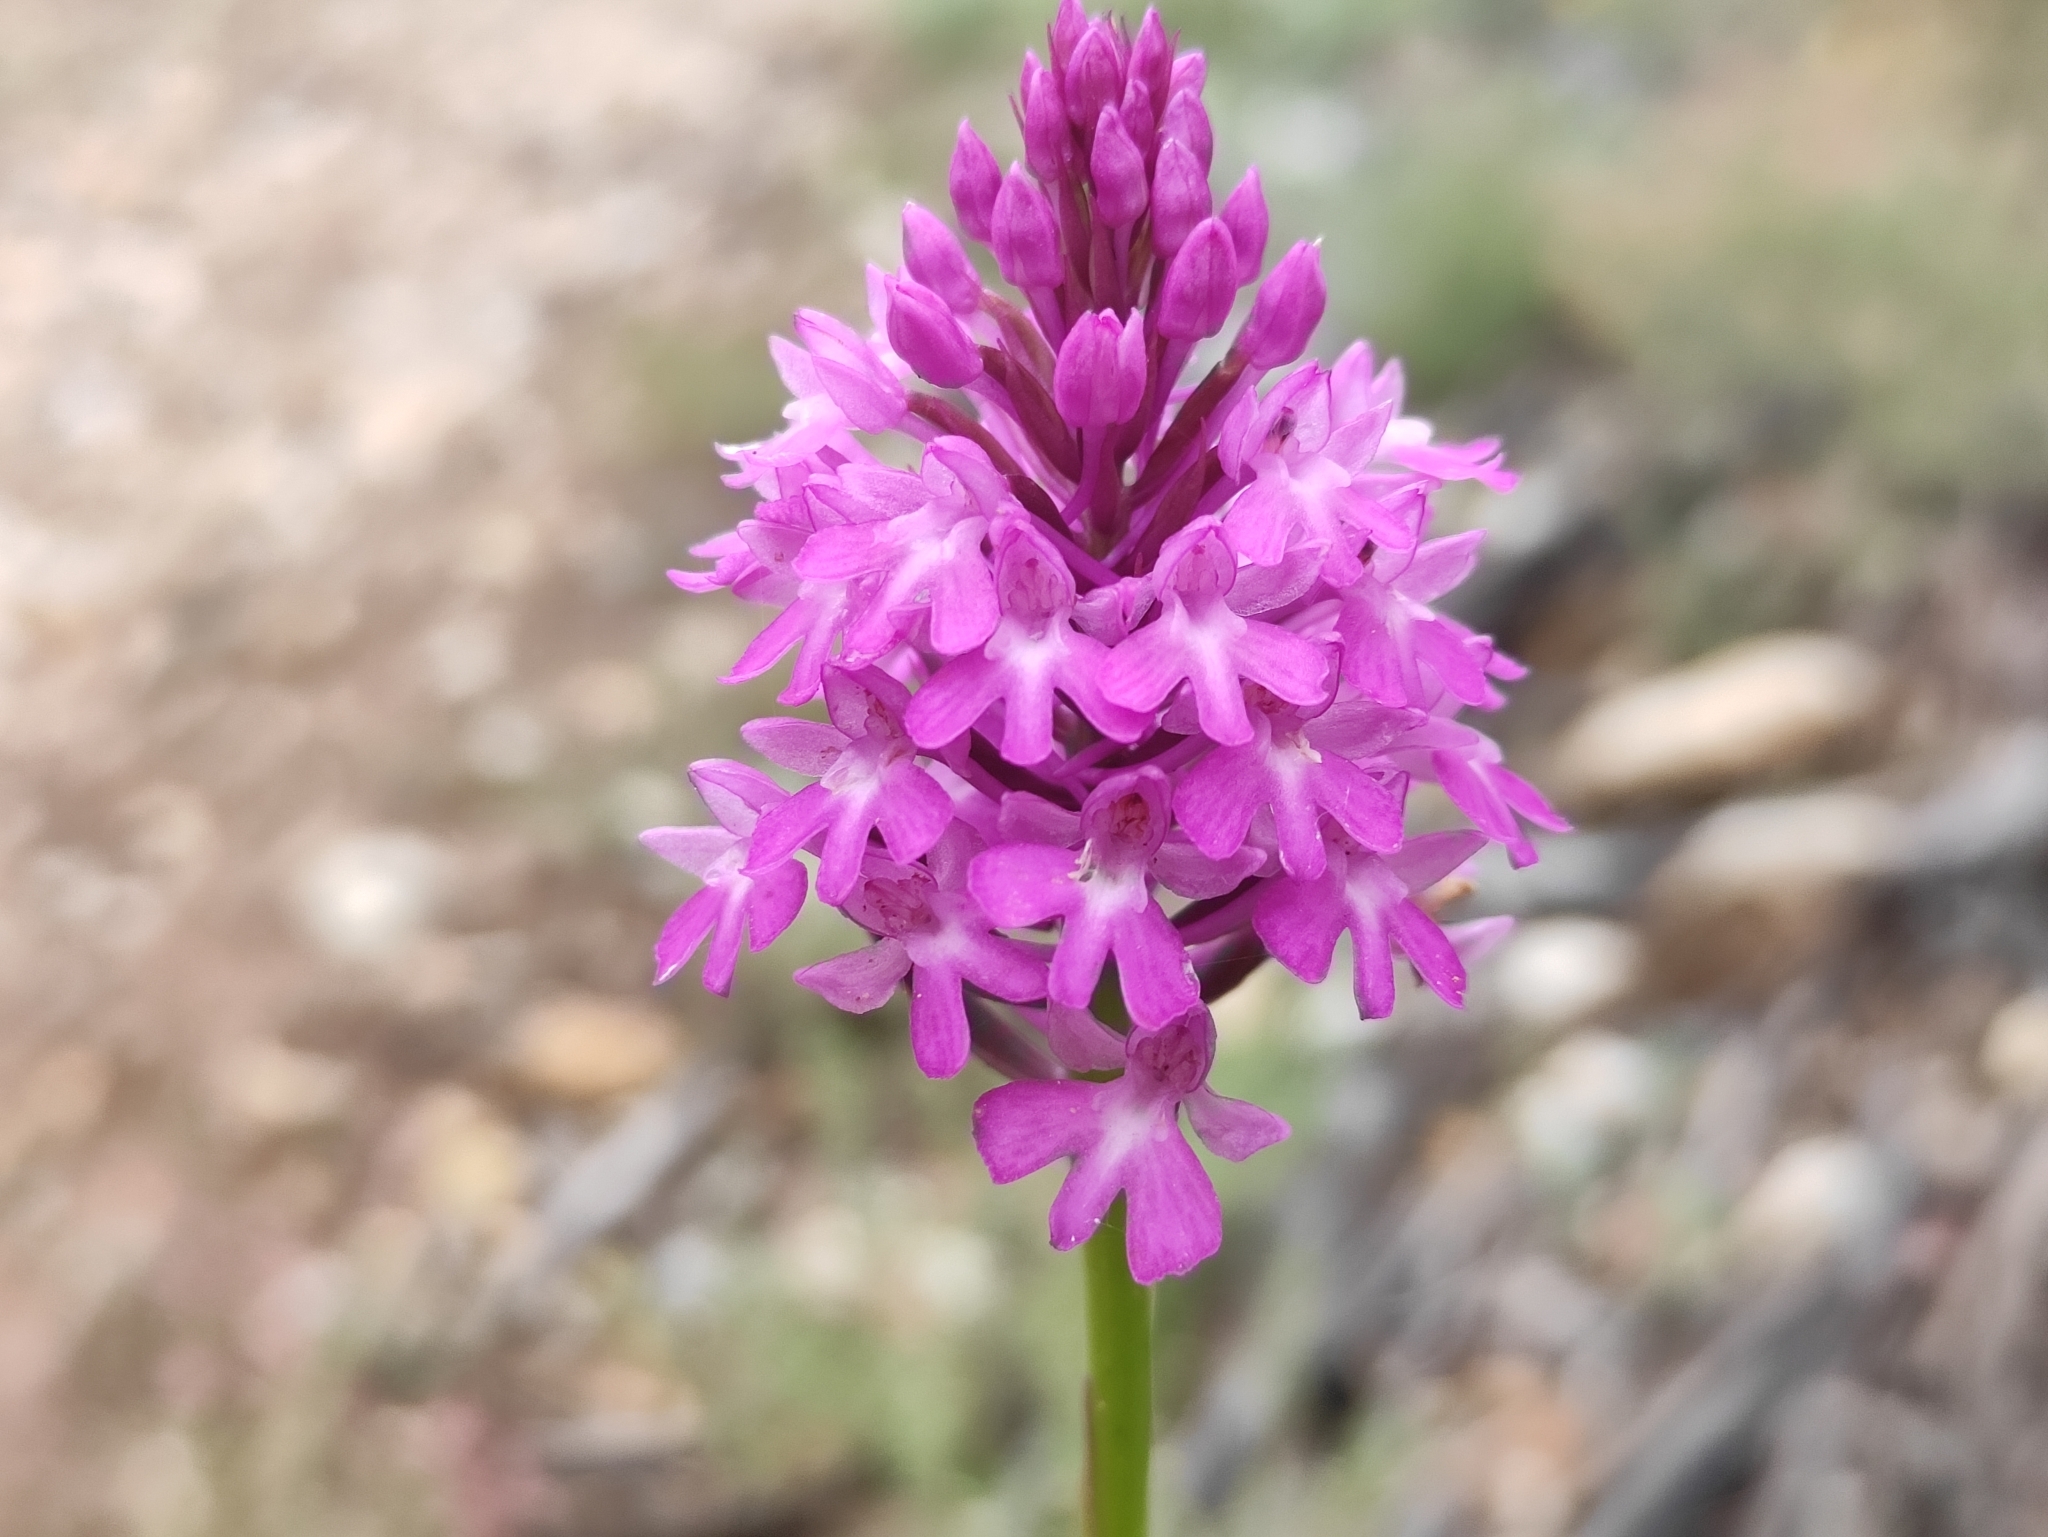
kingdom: Plantae
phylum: Tracheophyta
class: Liliopsida
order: Asparagales
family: Orchidaceae
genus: Anacamptis
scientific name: Anacamptis pyramidalis
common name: Pyramidal orchid
